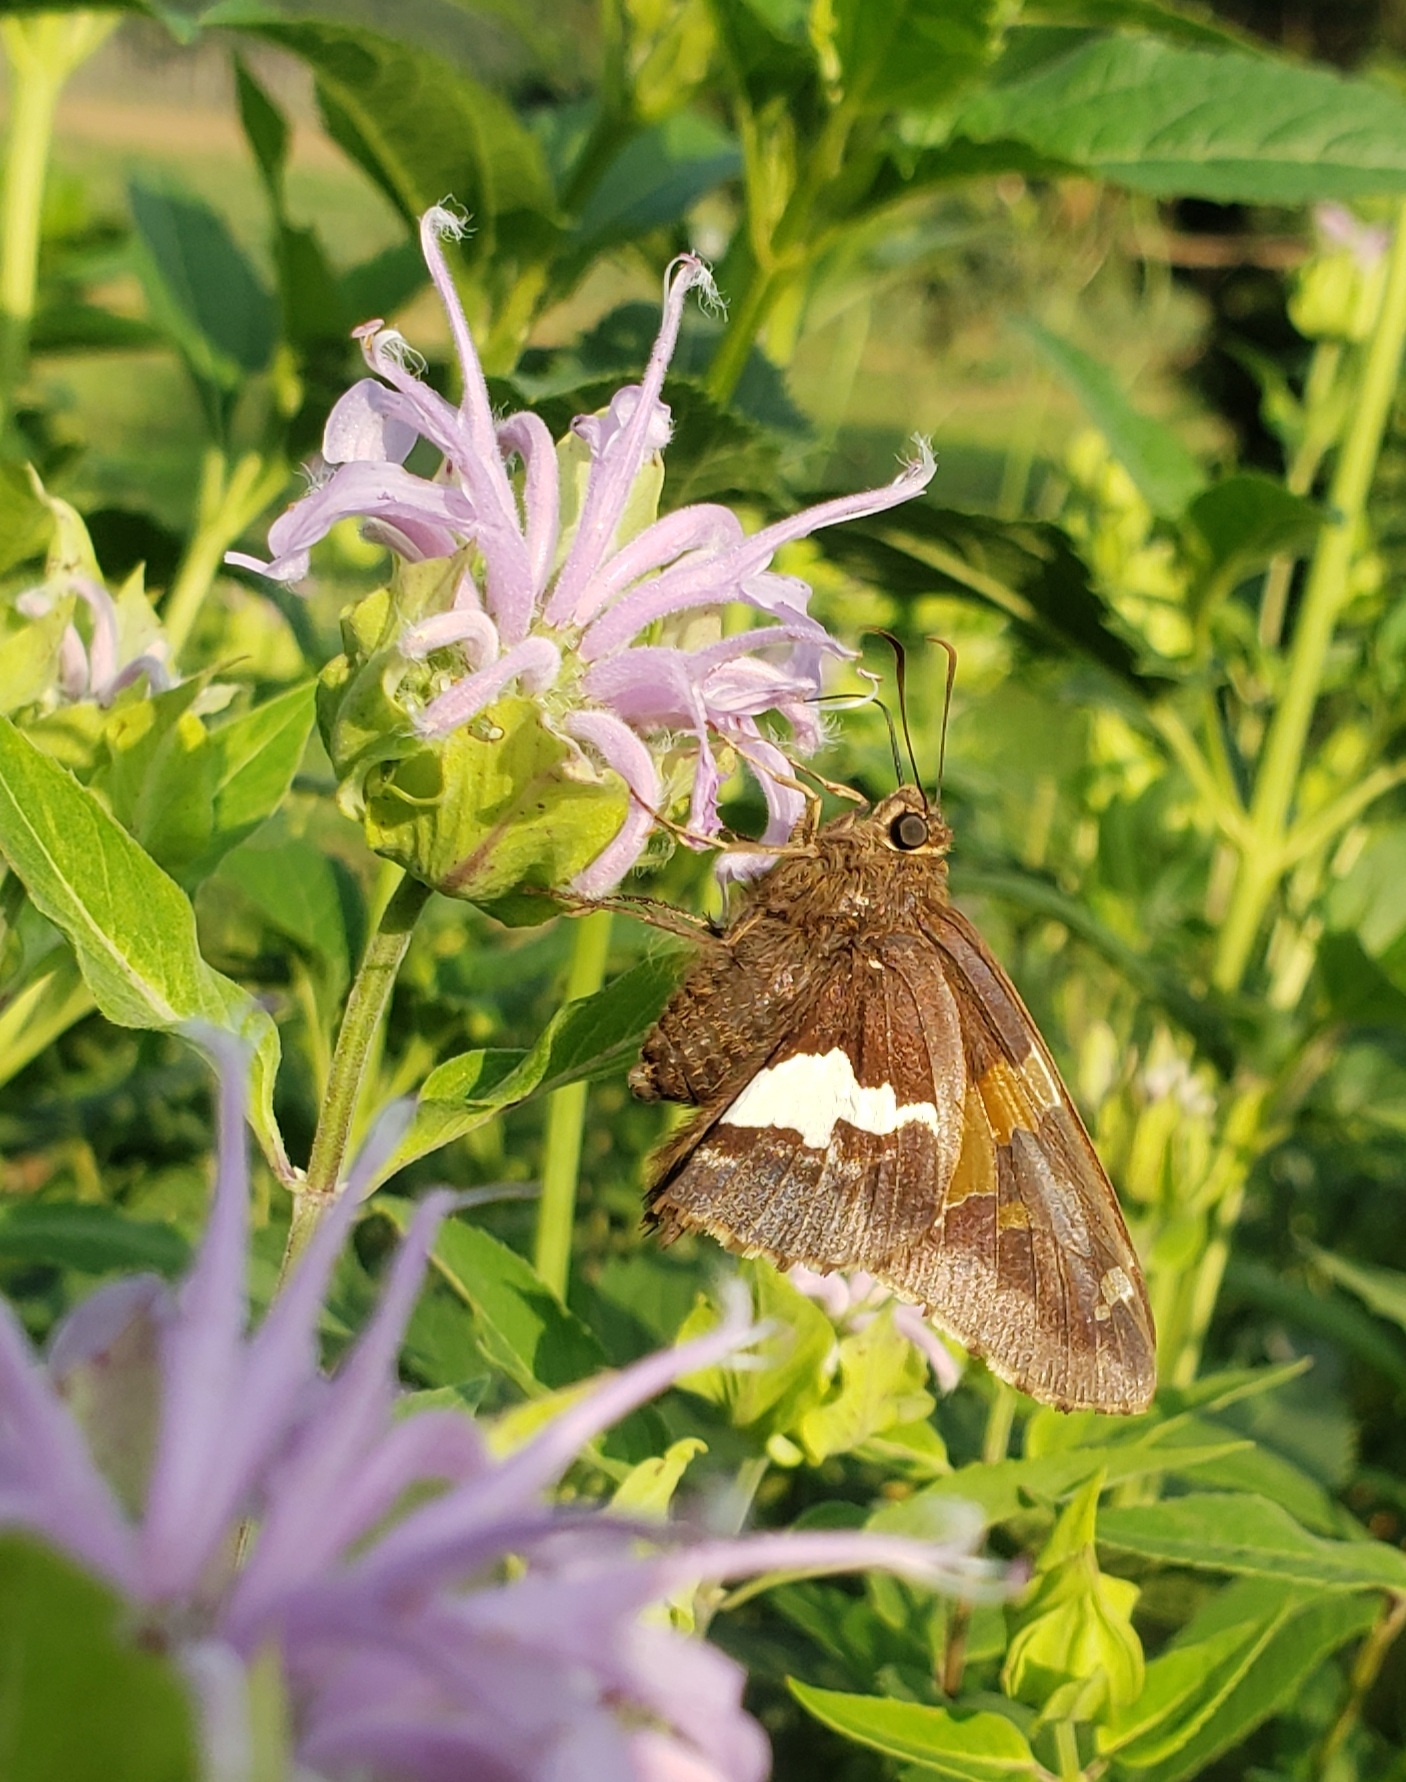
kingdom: Animalia
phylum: Arthropoda
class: Insecta
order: Lepidoptera
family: Hesperiidae
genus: Epargyreus
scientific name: Epargyreus clarus
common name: Silver-spotted skipper
